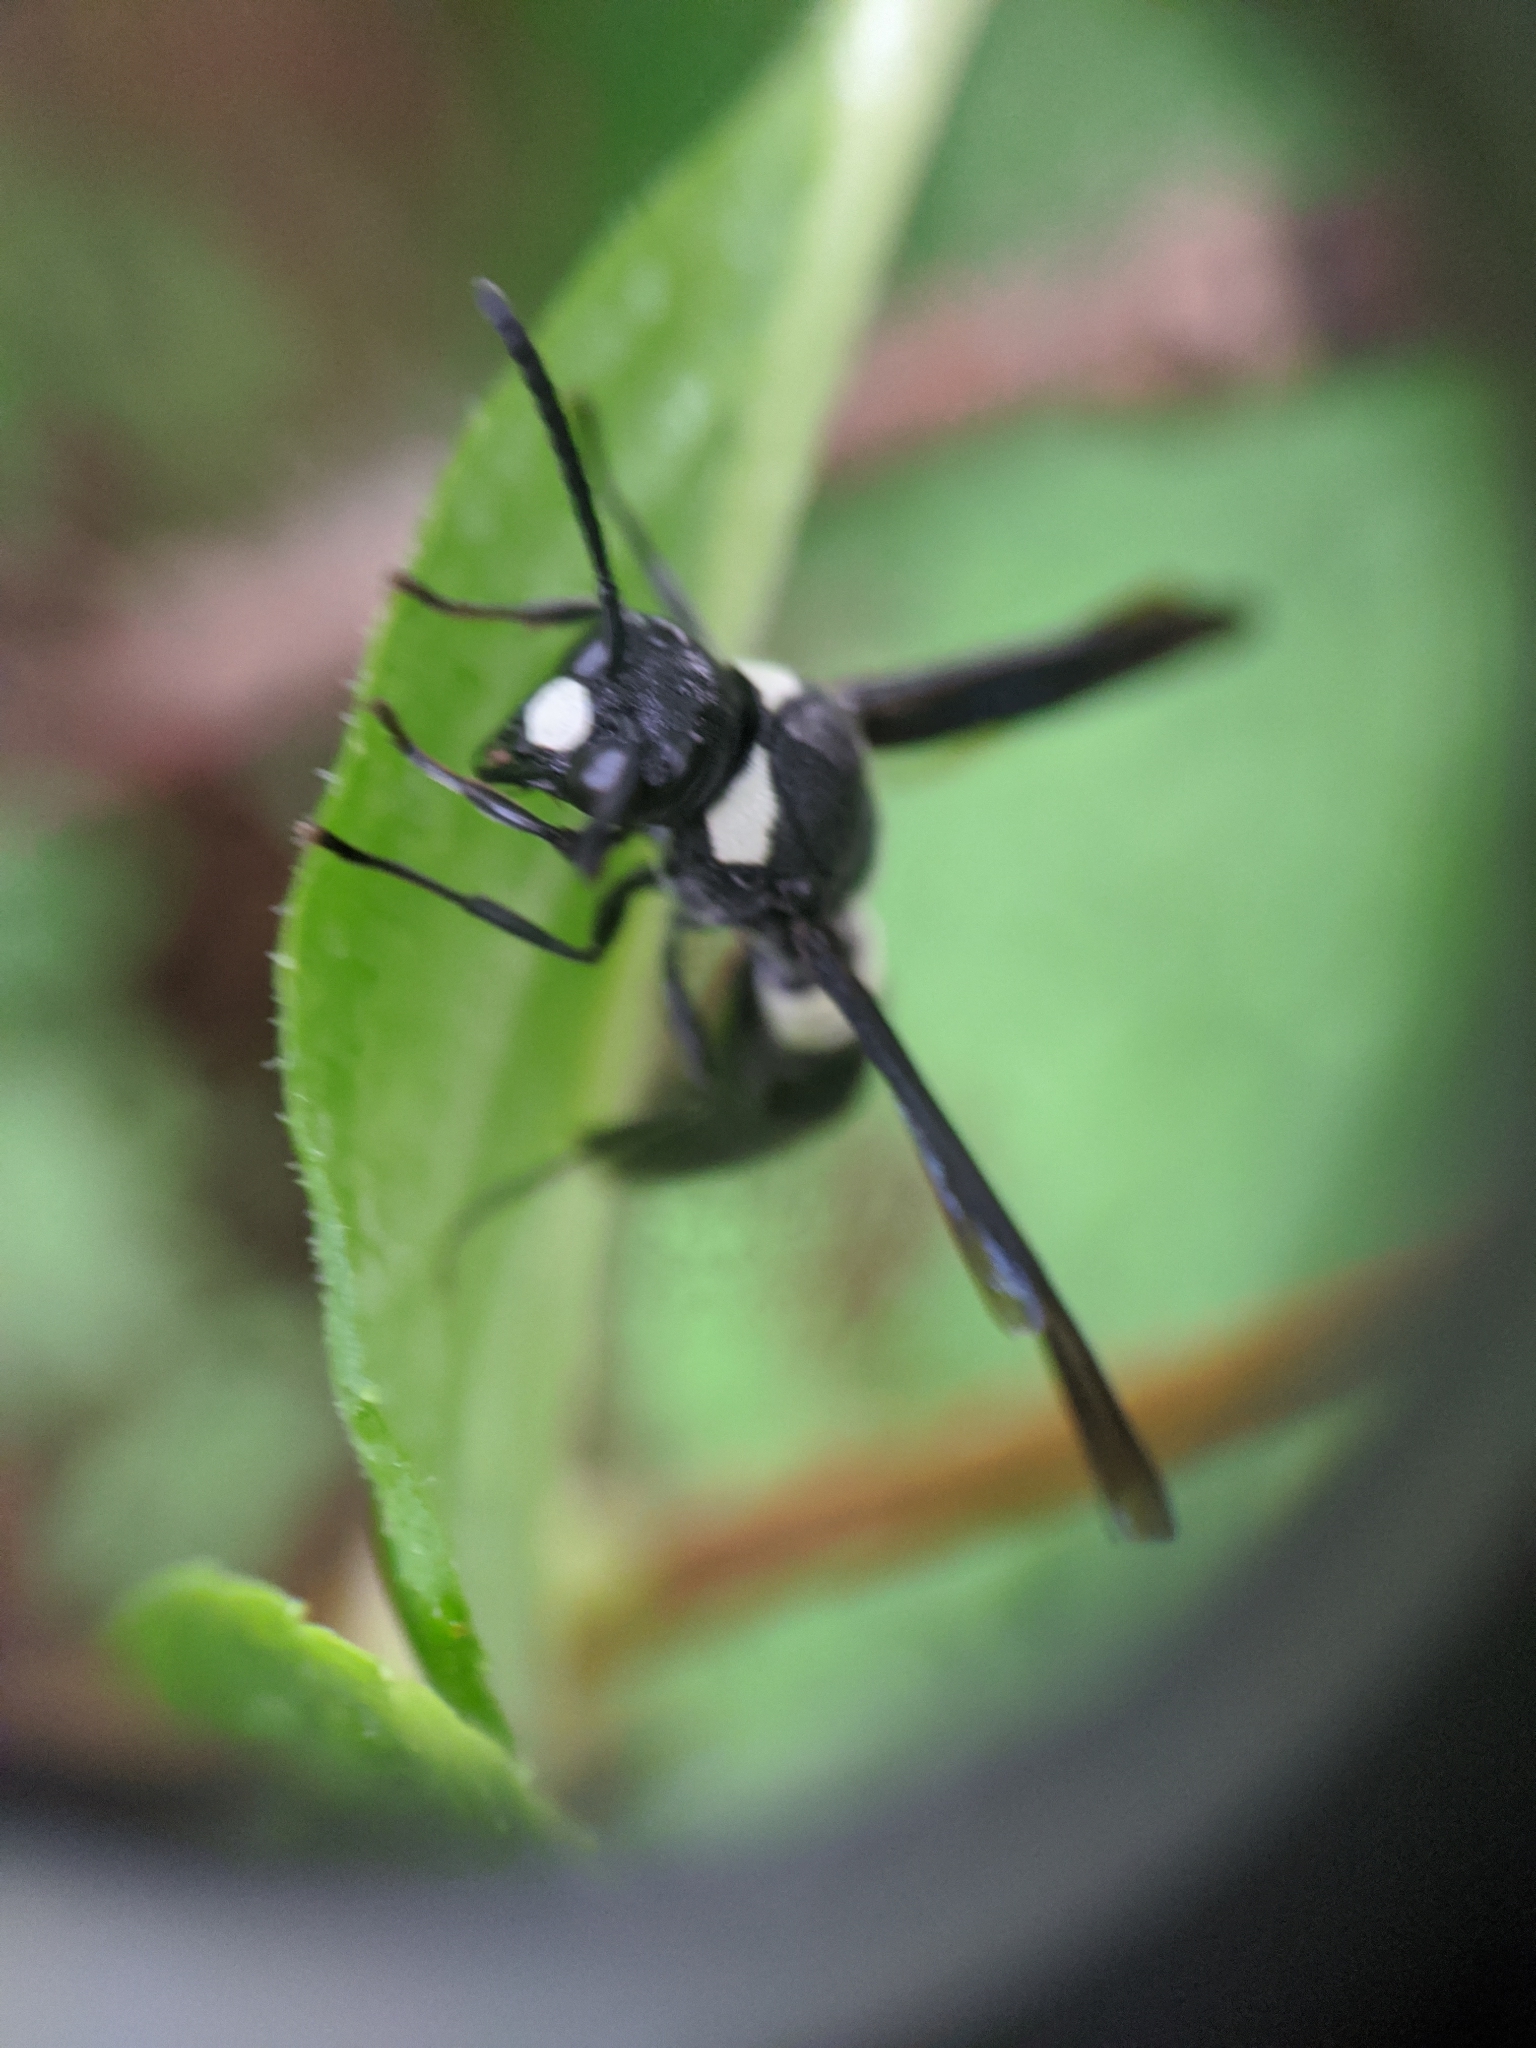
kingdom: Animalia
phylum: Arthropoda
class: Insecta
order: Hymenoptera
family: Eumenidae
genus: Monobia
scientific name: Monobia quadridens
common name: Four-toothed mason wasp
